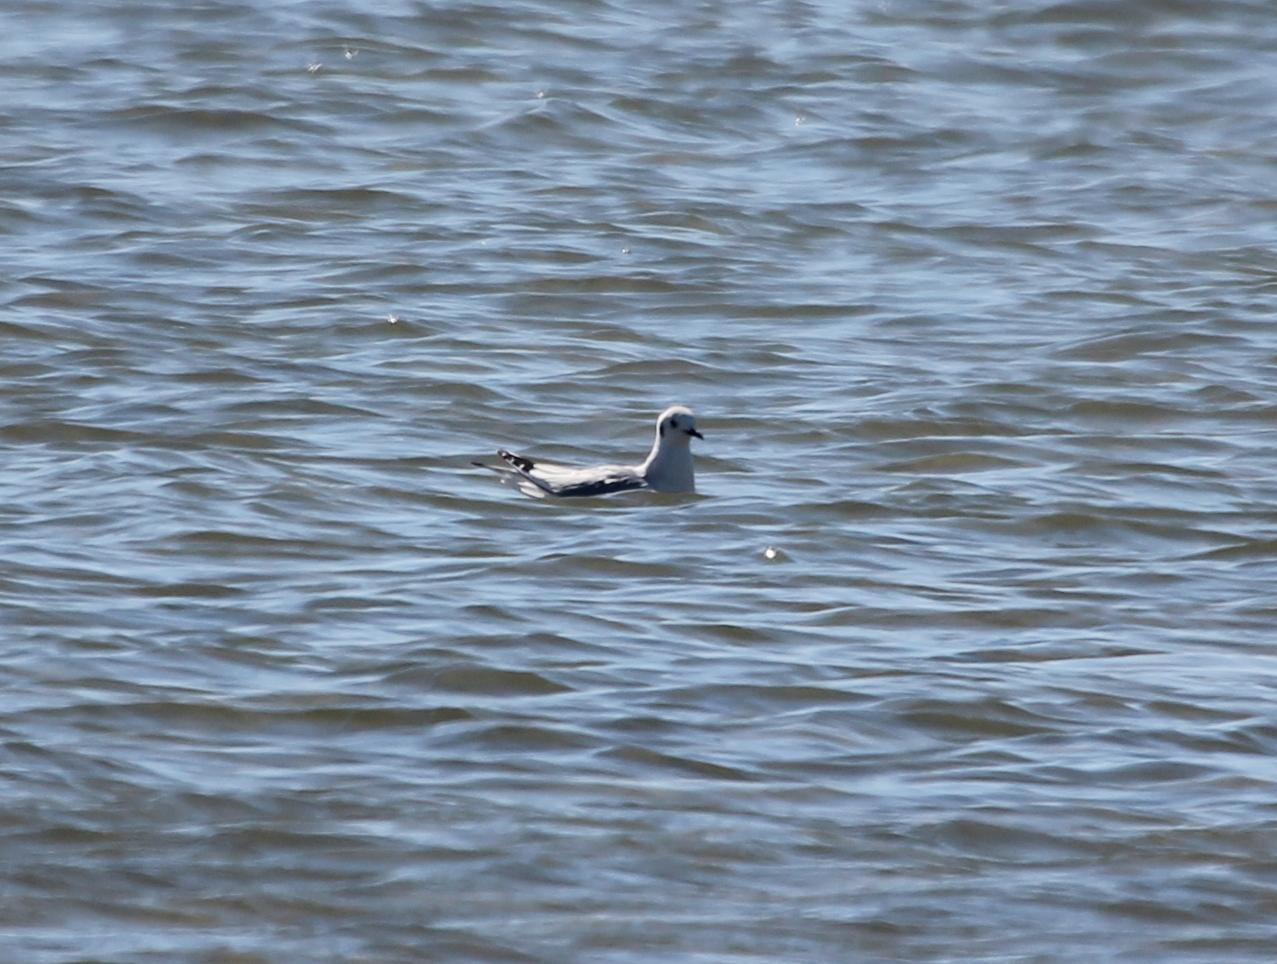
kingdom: Animalia
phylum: Chordata
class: Aves
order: Charadriiformes
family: Laridae
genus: Chroicocephalus
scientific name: Chroicocephalus philadelphia
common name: Bonaparte's gull
